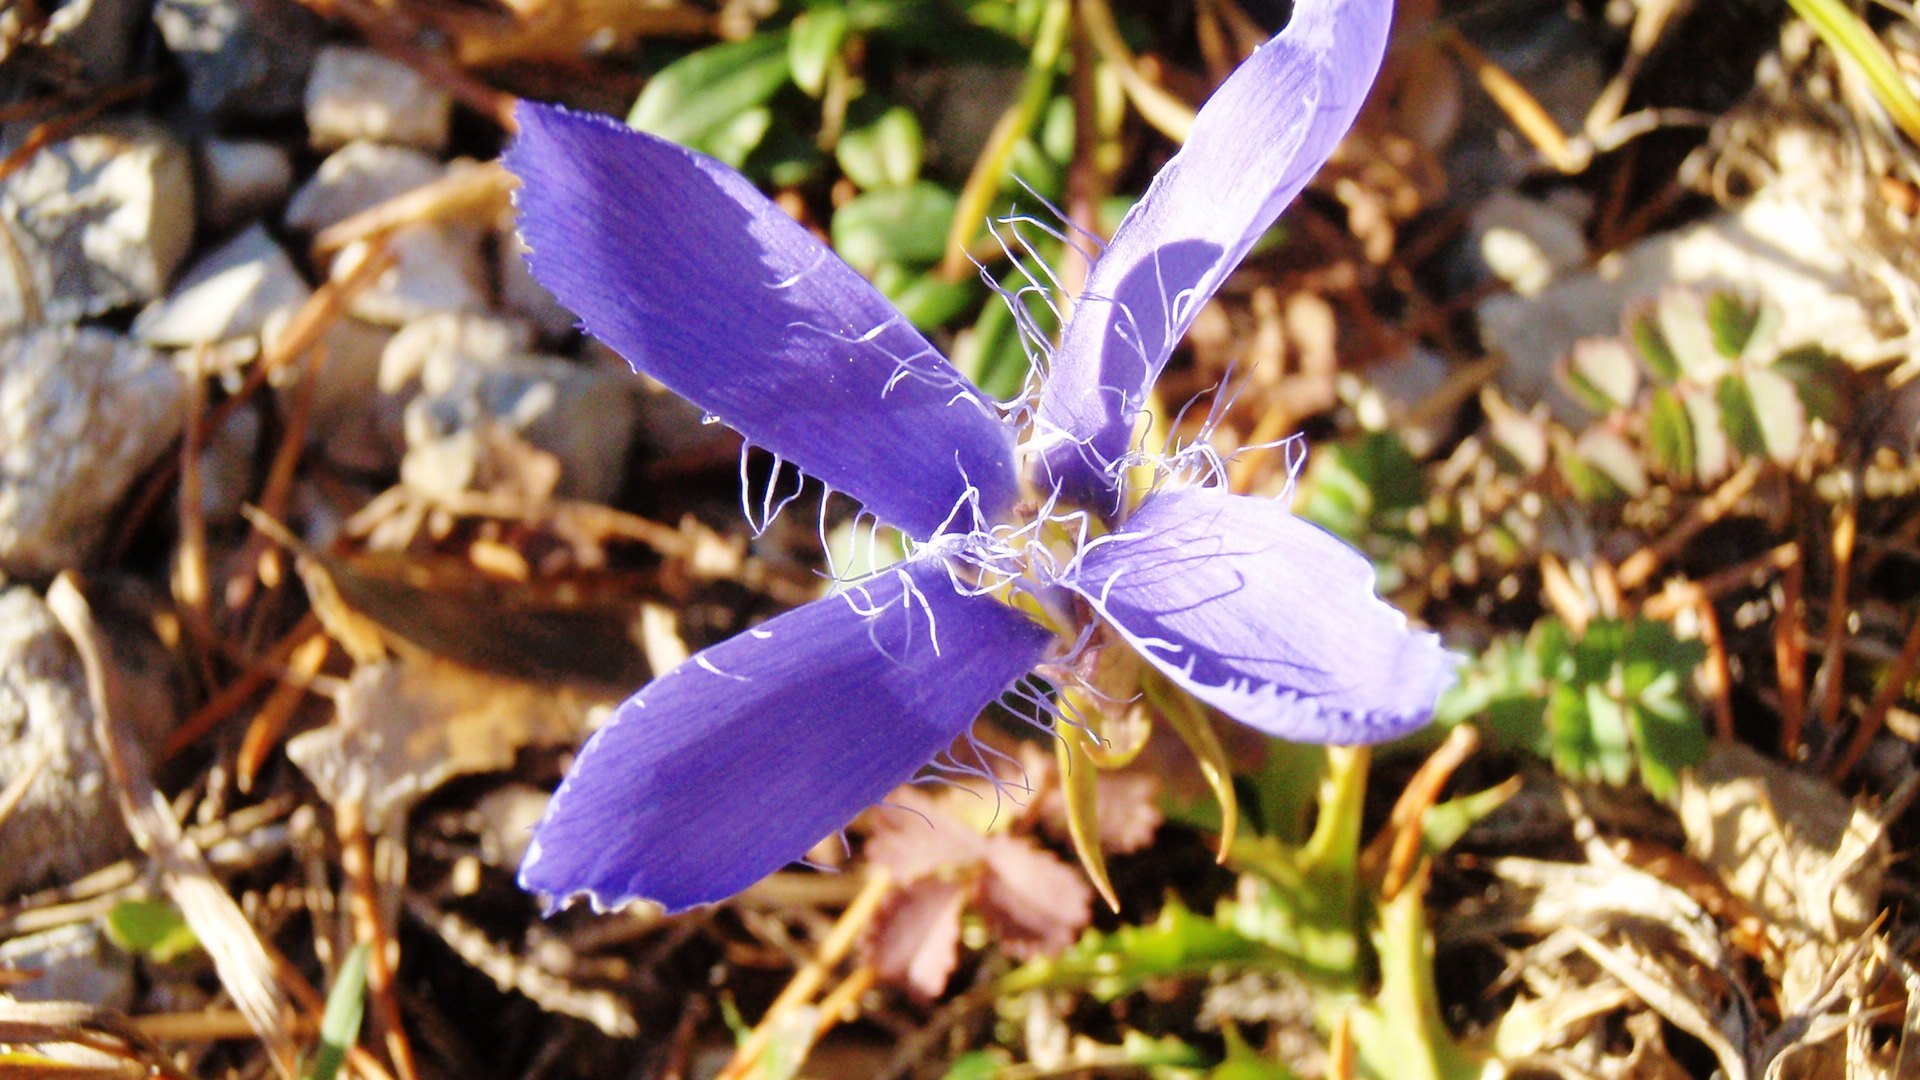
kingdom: Plantae
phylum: Tracheophyta
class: Magnoliopsida
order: Gentianales
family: Gentianaceae
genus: Gentianopsis
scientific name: Gentianopsis ciliata
